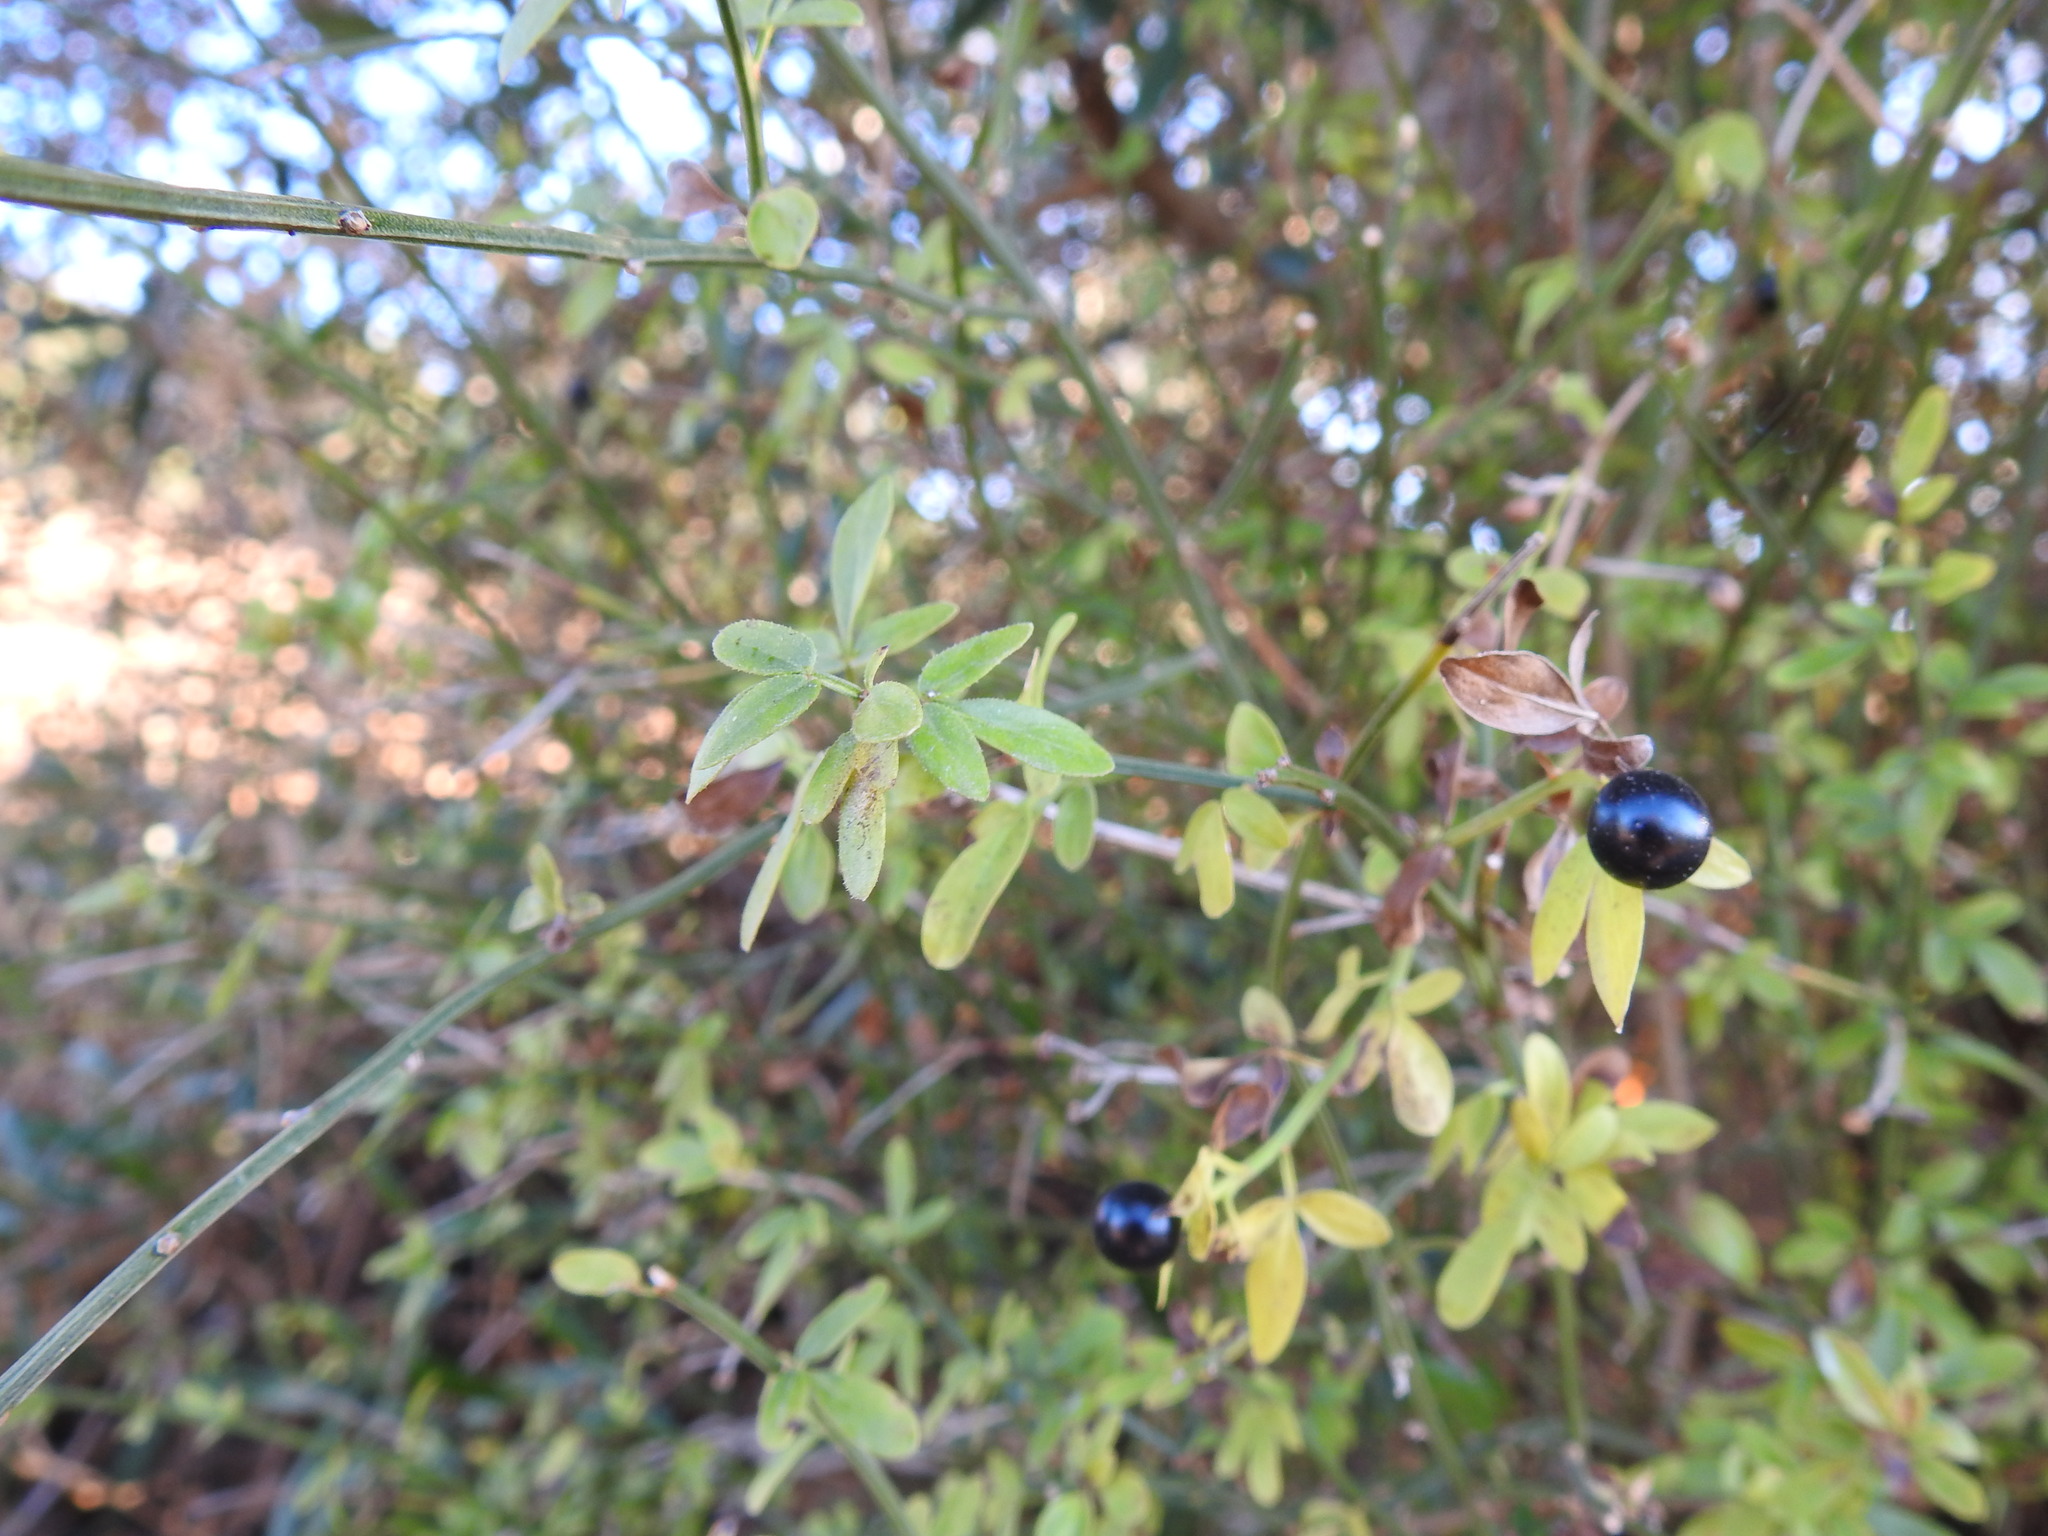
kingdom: Plantae
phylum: Tracheophyta
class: Magnoliopsida
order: Lamiales
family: Oleaceae
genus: Chrysojasminum
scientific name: Chrysojasminum fruticans
